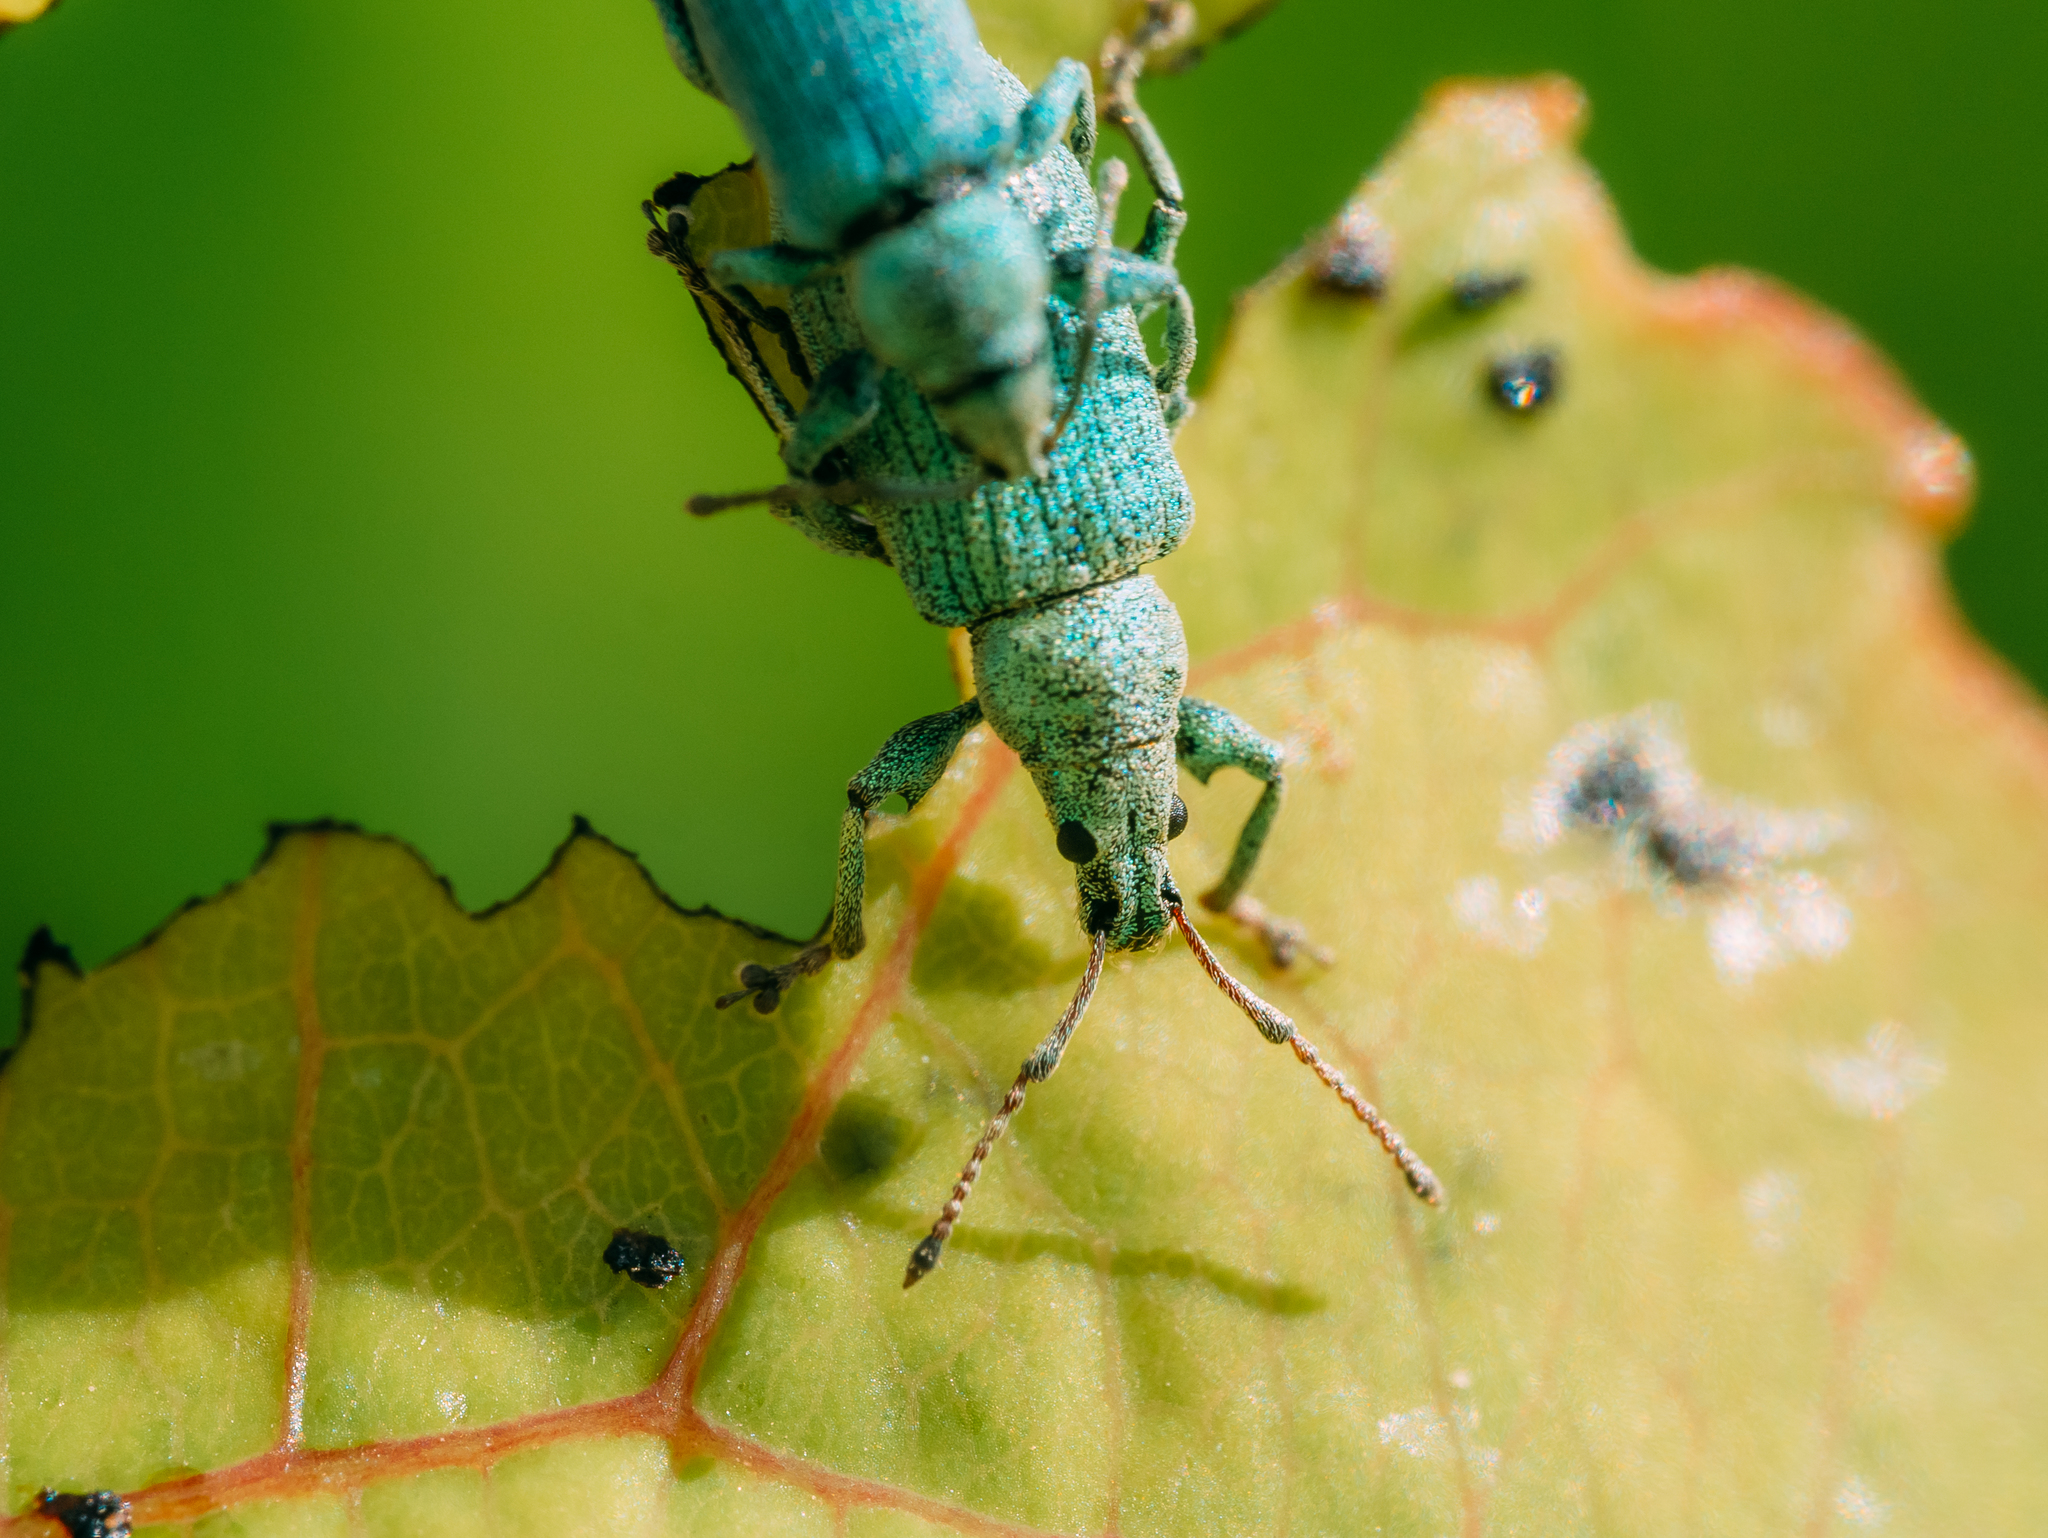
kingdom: Animalia
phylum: Arthropoda
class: Insecta
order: Coleoptera
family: Curculionidae
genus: Phyllobius
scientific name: Phyllobius maculicornis
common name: Green leaf weevil
